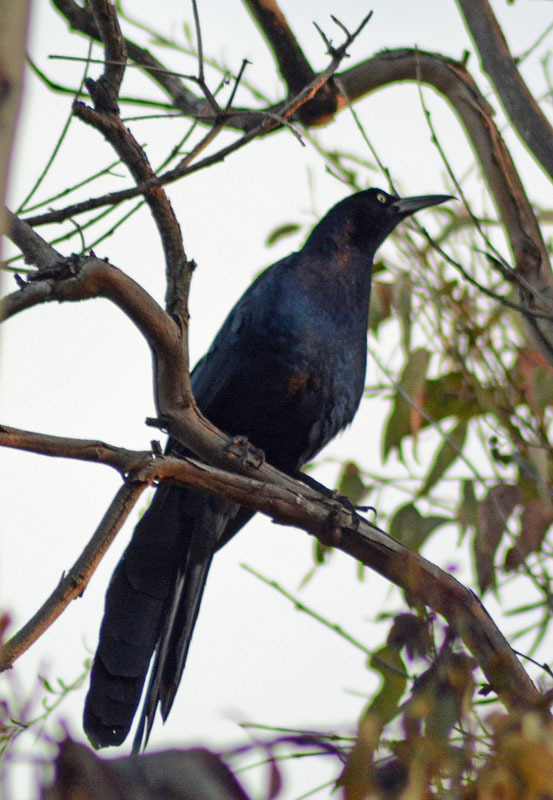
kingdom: Animalia
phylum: Chordata
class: Aves
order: Passeriformes
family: Icteridae
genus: Quiscalus
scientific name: Quiscalus mexicanus
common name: Great-tailed grackle
